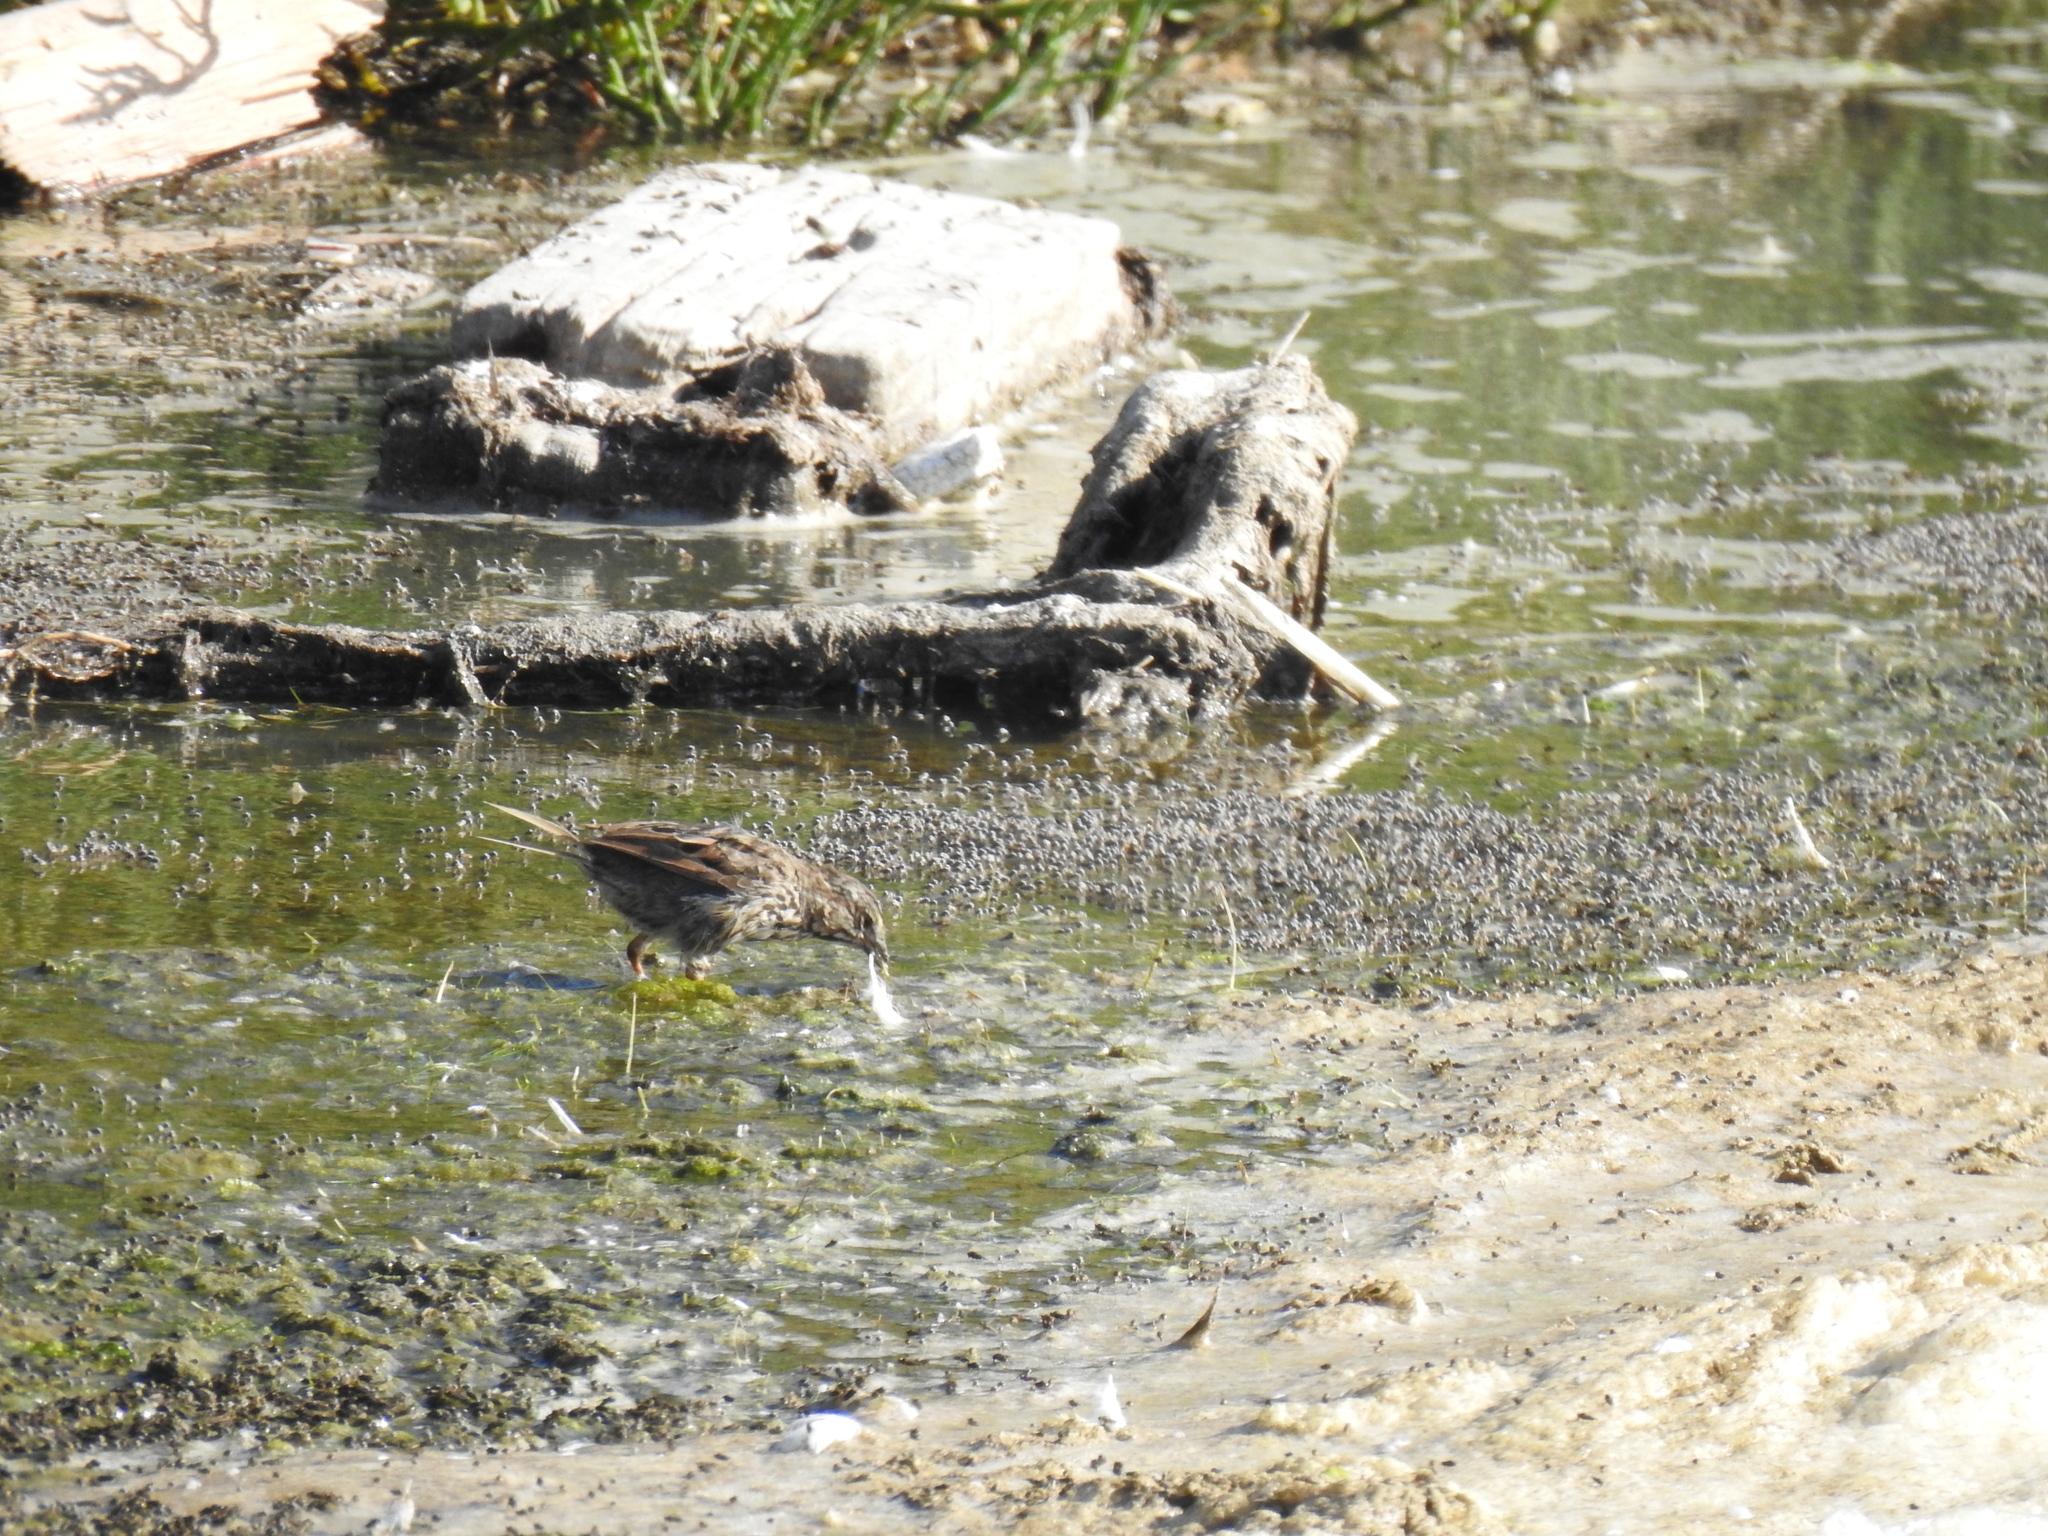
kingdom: Animalia
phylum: Chordata
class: Aves
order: Passeriformes
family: Passerellidae
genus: Melospiza
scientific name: Melospiza melodia
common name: Song sparrow
